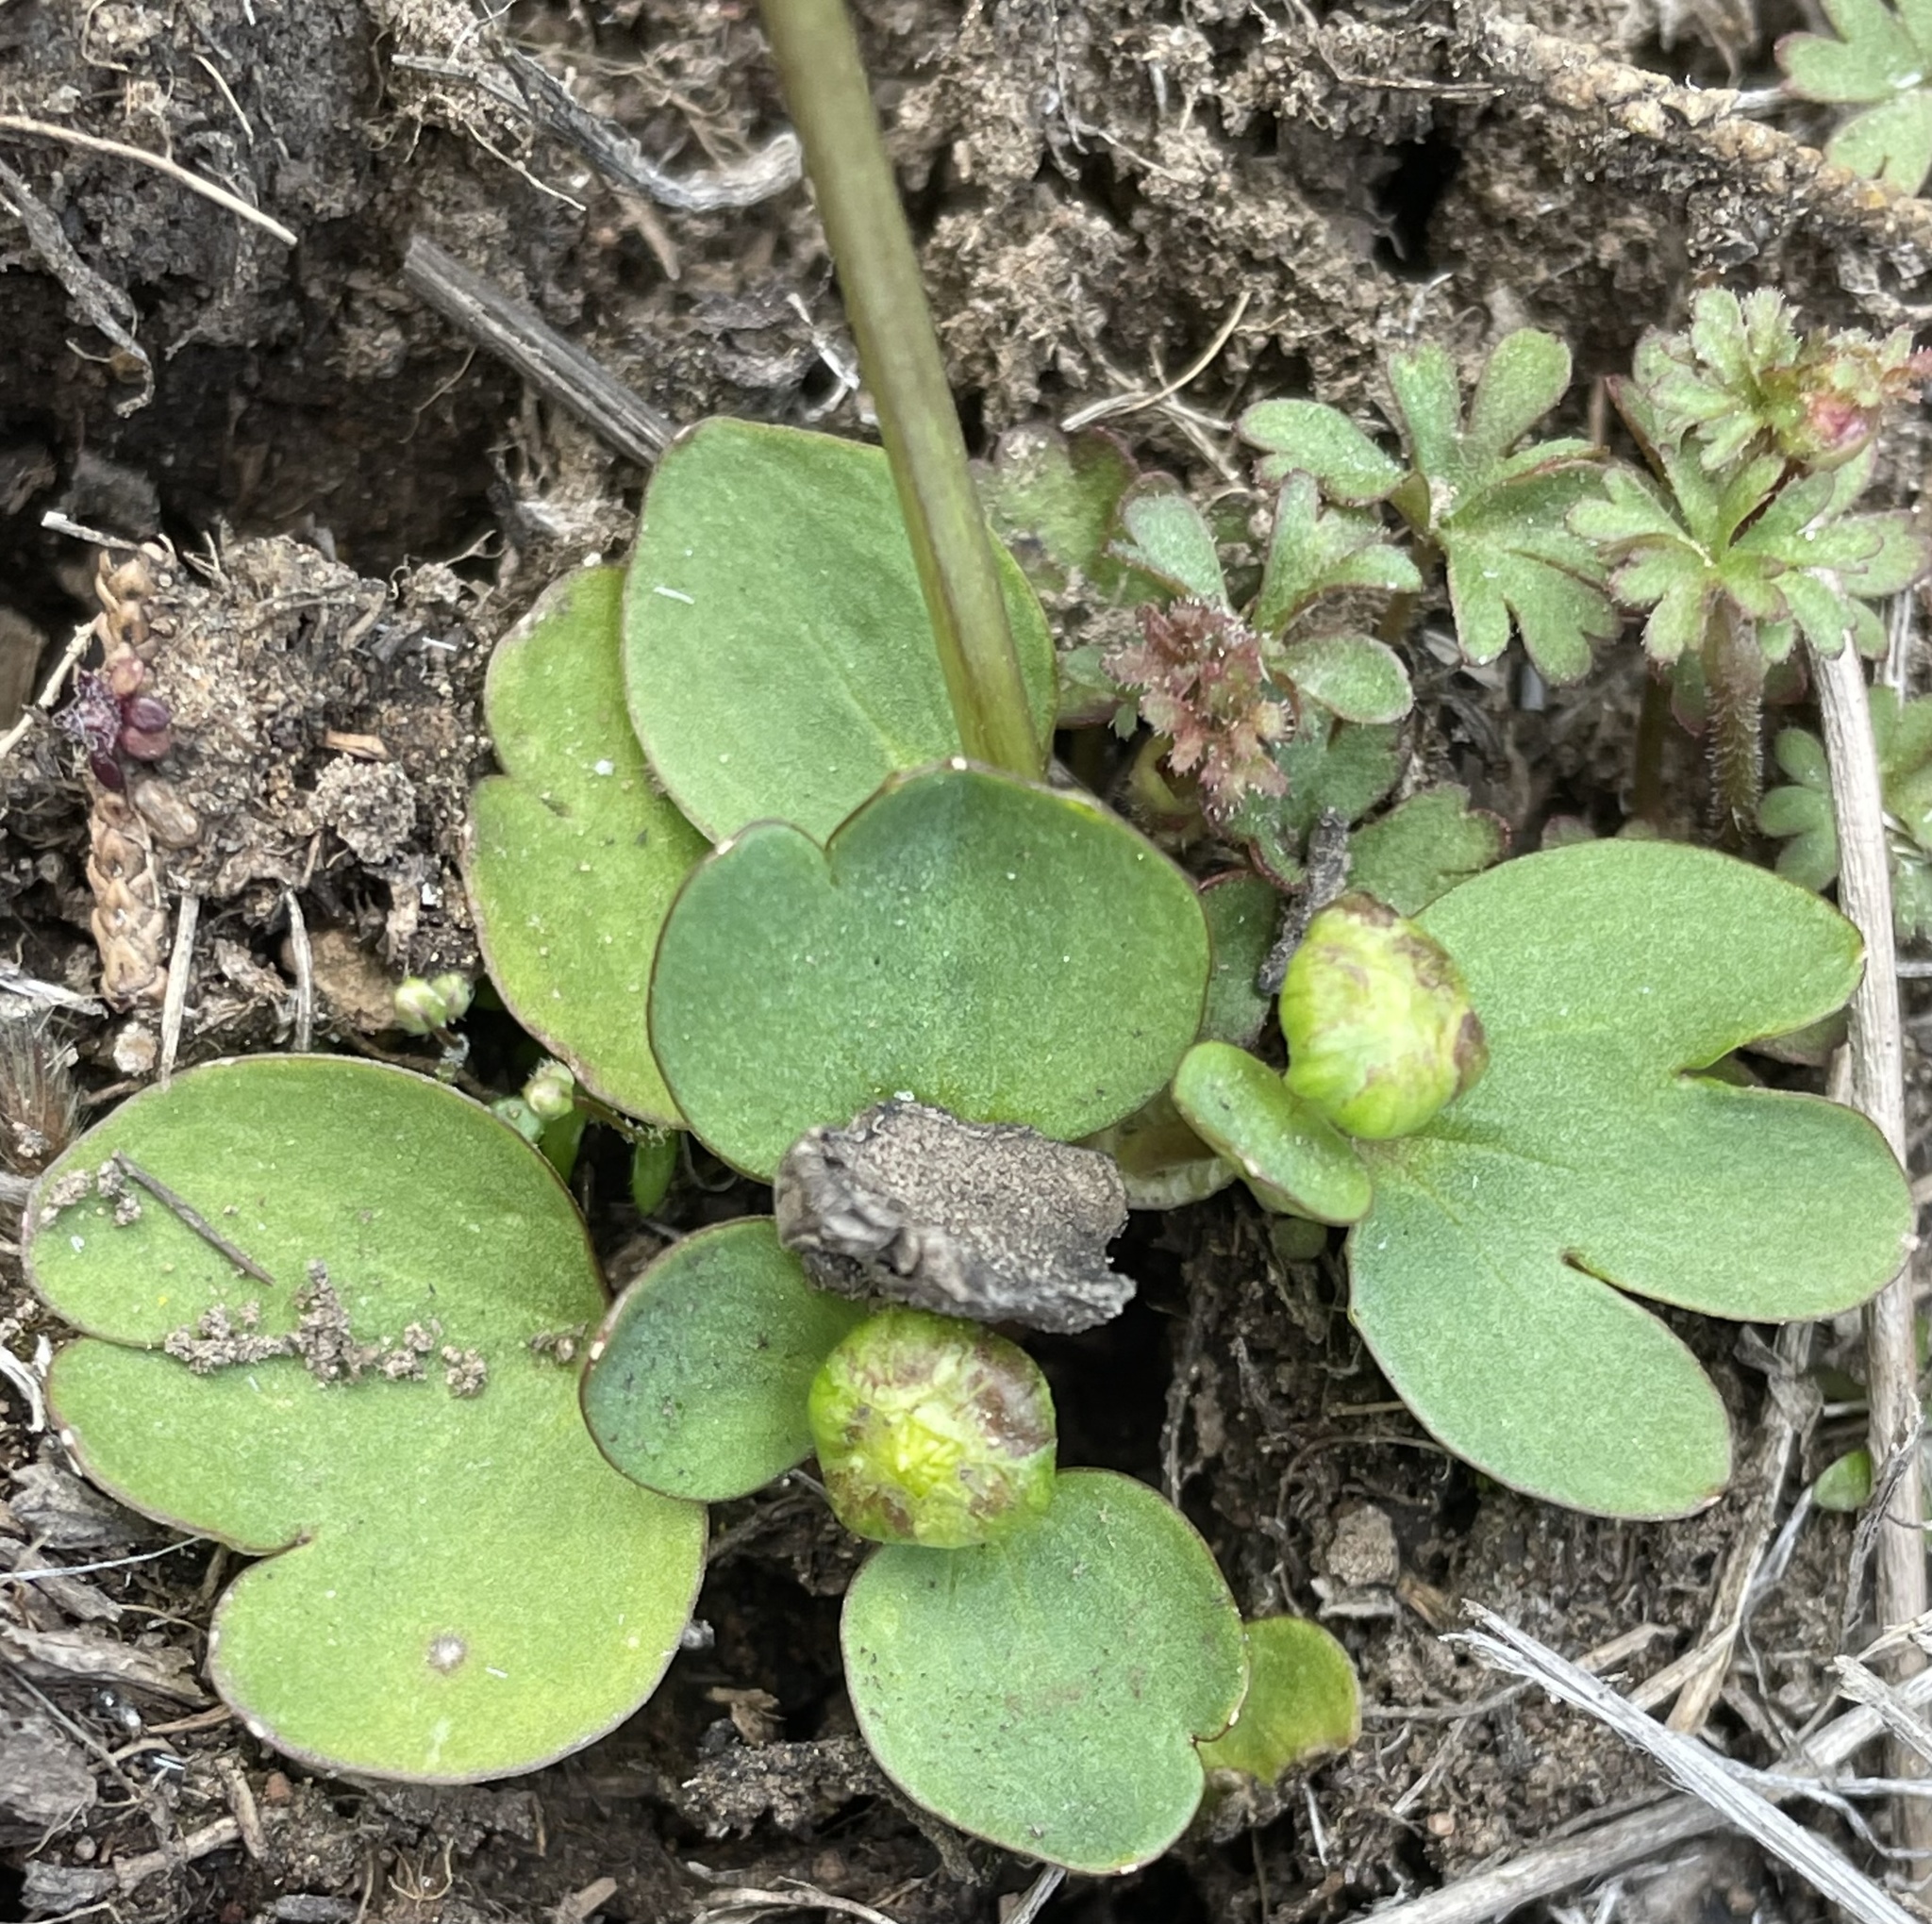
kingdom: Plantae
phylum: Tracheophyta
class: Magnoliopsida
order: Ranunculales
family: Ranunculaceae
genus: Ranunculus
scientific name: Ranunculus glaberrimus
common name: Sagebrush buttercup
